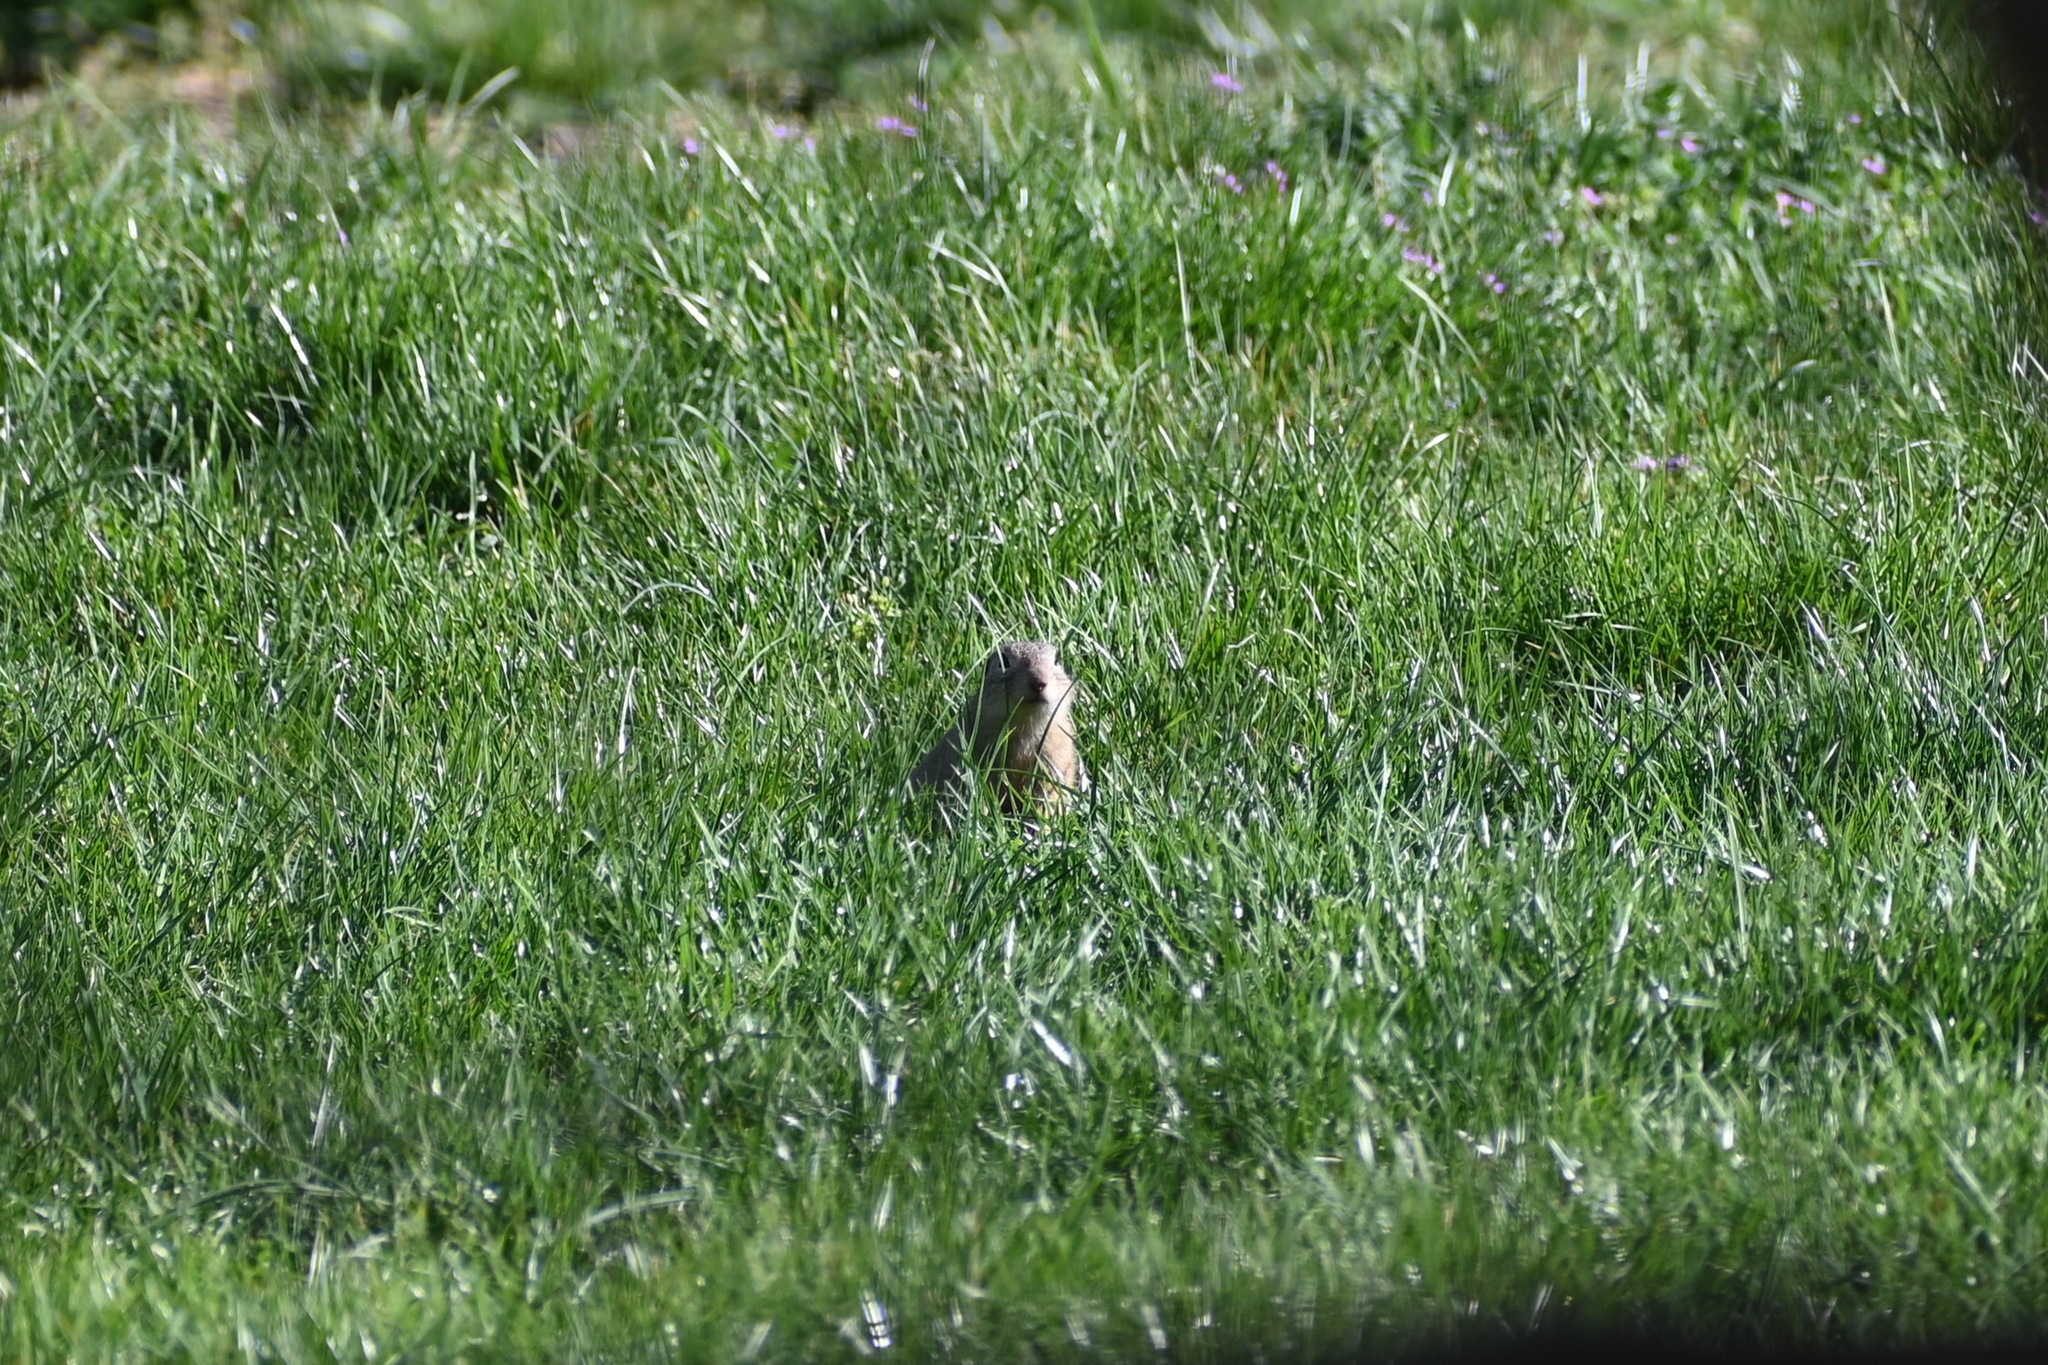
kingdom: Animalia
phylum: Chordata
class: Mammalia
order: Rodentia
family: Sciuridae
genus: Spermophilus
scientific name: Spermophilus citellus
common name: European ground squirrel
